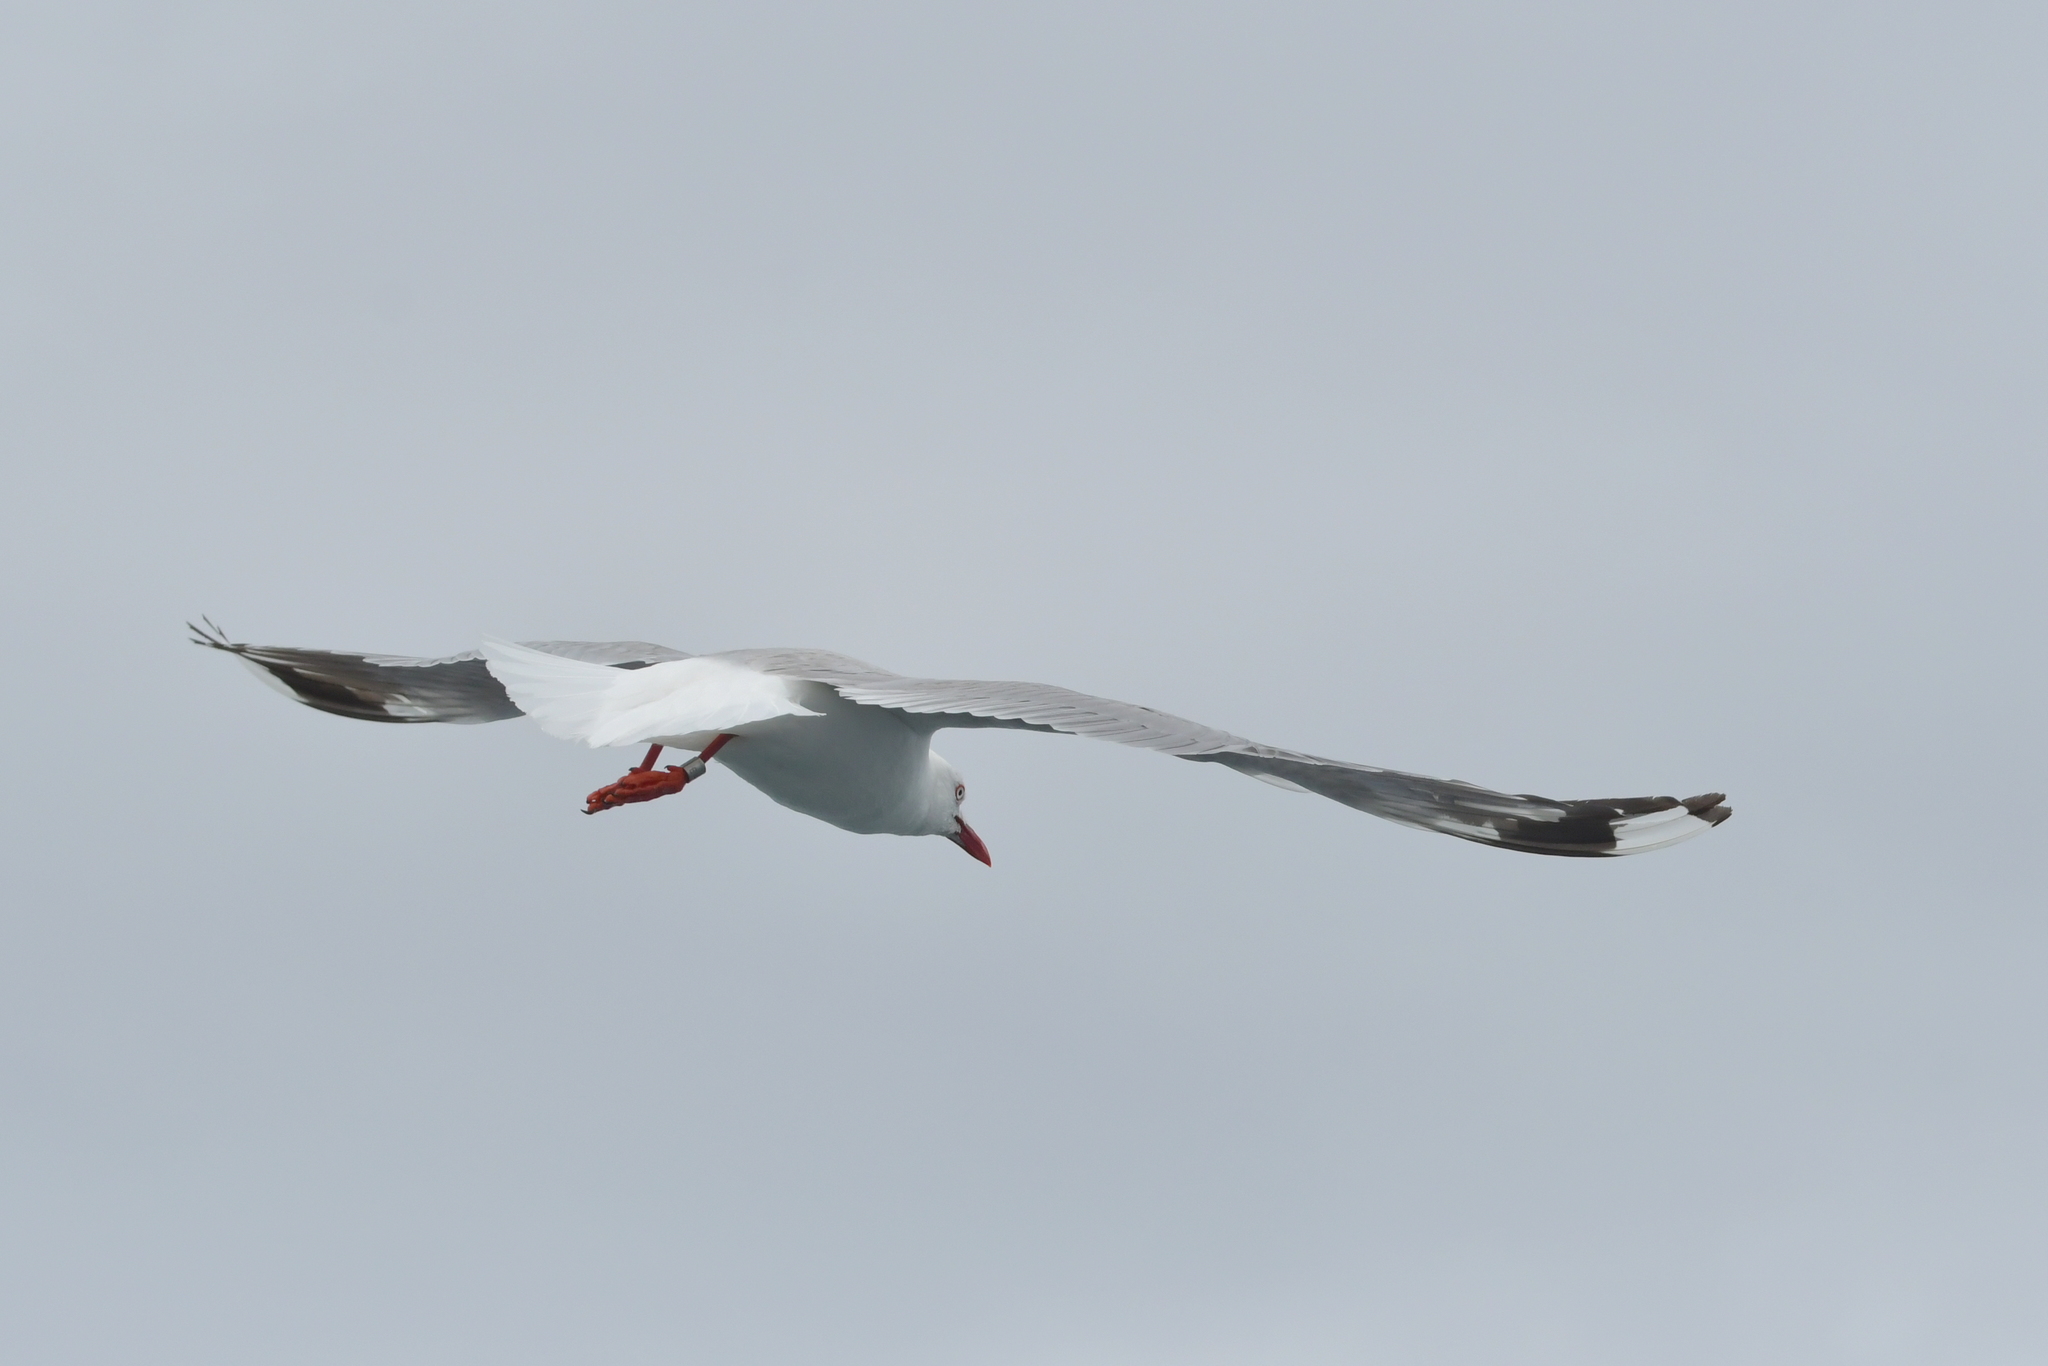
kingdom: Animalia
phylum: Chordata
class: Aves
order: Charadriiformes
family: Laridae
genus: Chroicocephalus
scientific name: Chroicocephalus novaehollandiae
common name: Silver gull
